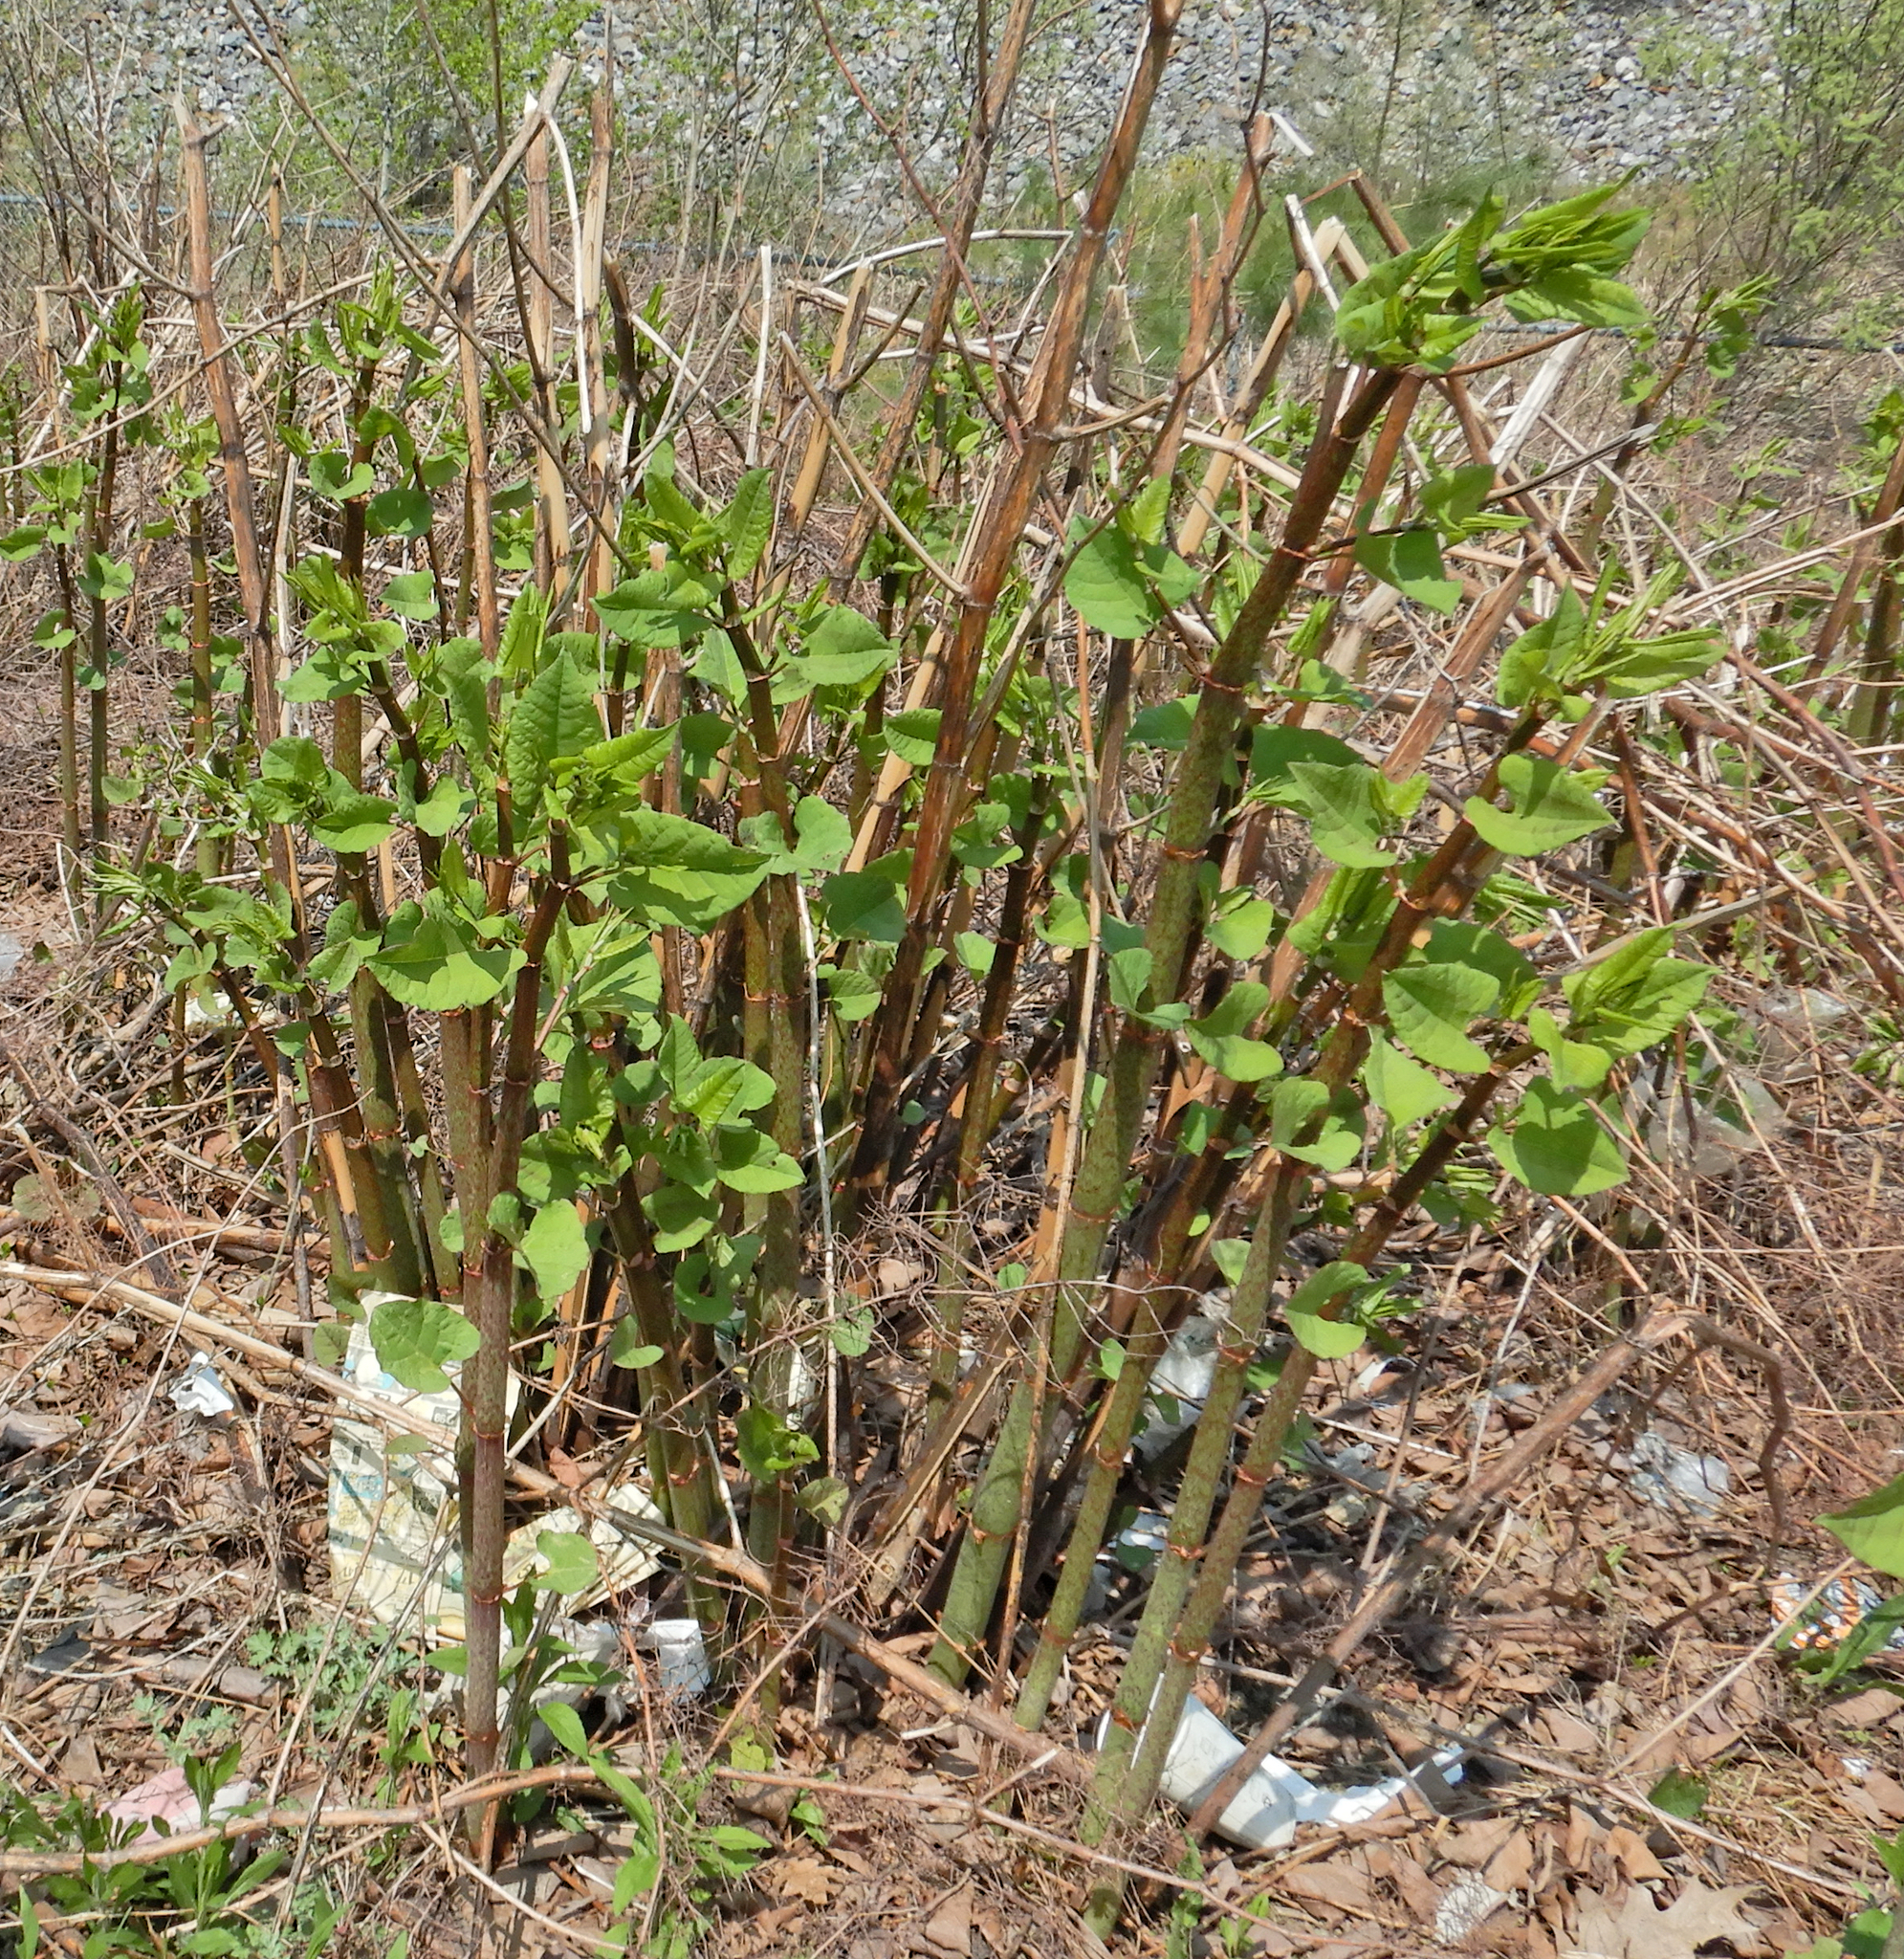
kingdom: Plantae
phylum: Tracheophyta
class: Magnoliopsida
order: Caryophyllales
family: Polygonaceae
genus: Reynoutria
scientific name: Reynoutria japonica
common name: Japanese knotweed
